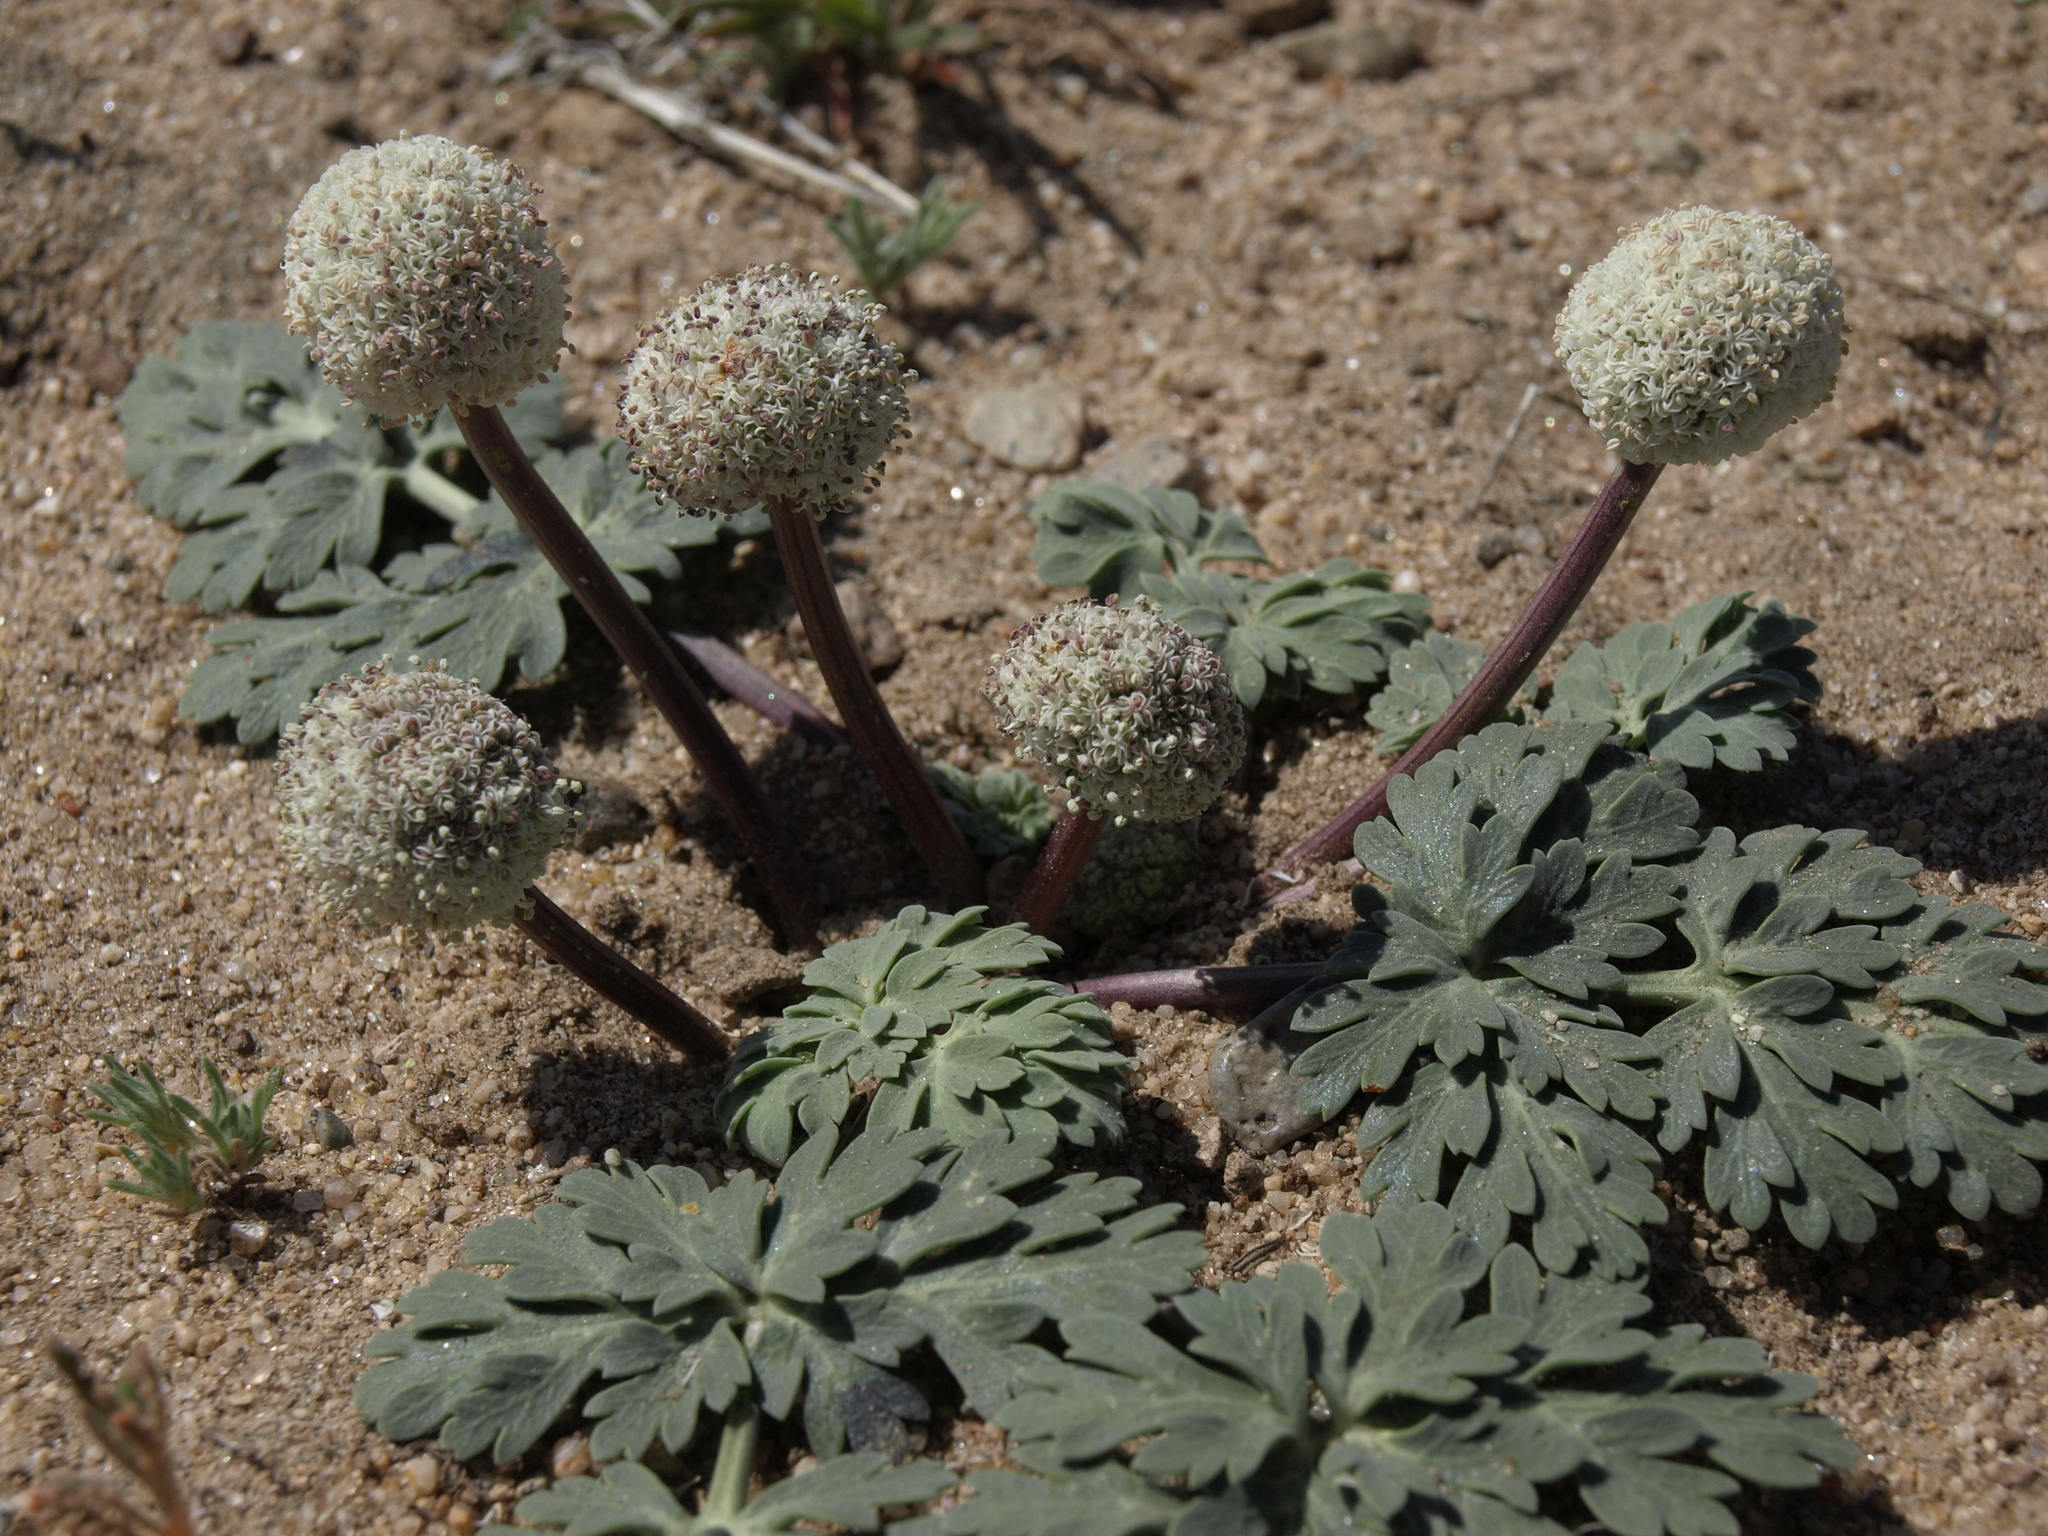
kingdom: Plantae
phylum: Tracheophyta
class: Magnoliopsida
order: Apiales
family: Apiaceae
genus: Cymopterus
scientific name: Cymopterus globosus
